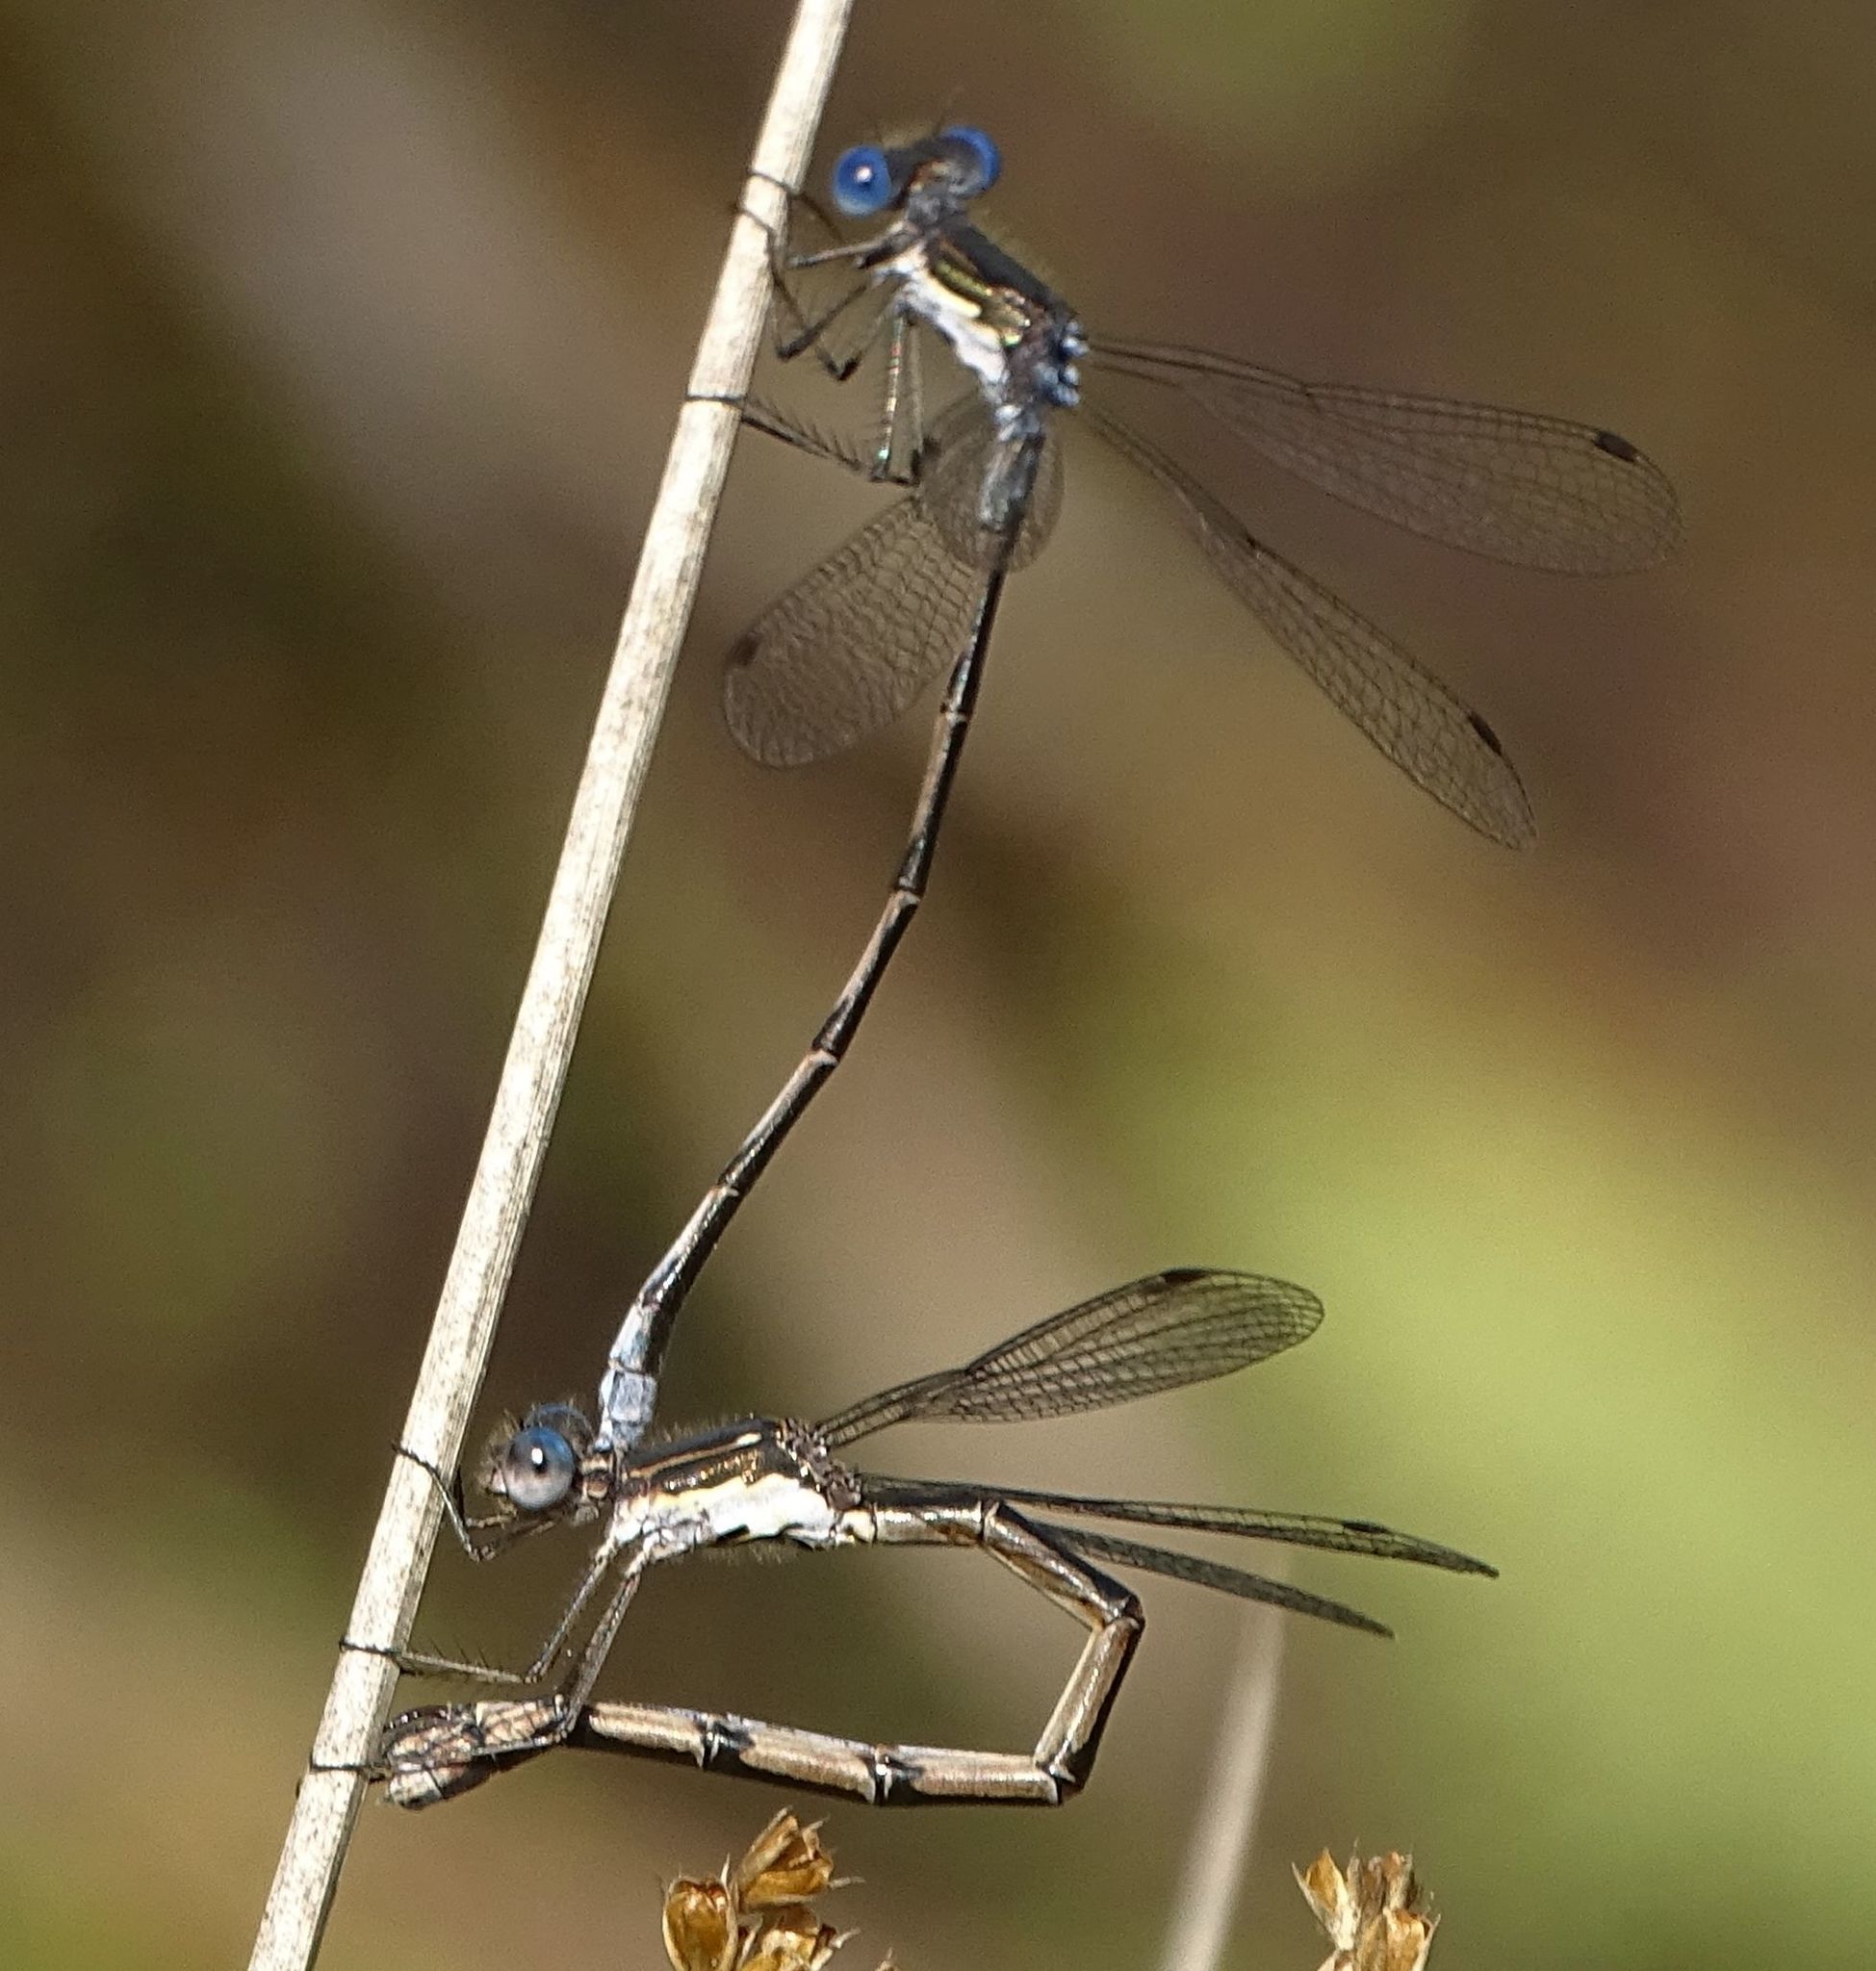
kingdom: Animalia
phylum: Arthropoda
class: Insecta
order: Odonata
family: Lestidae
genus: Lestes
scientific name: Lestes congener
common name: Spotted spreadwing
